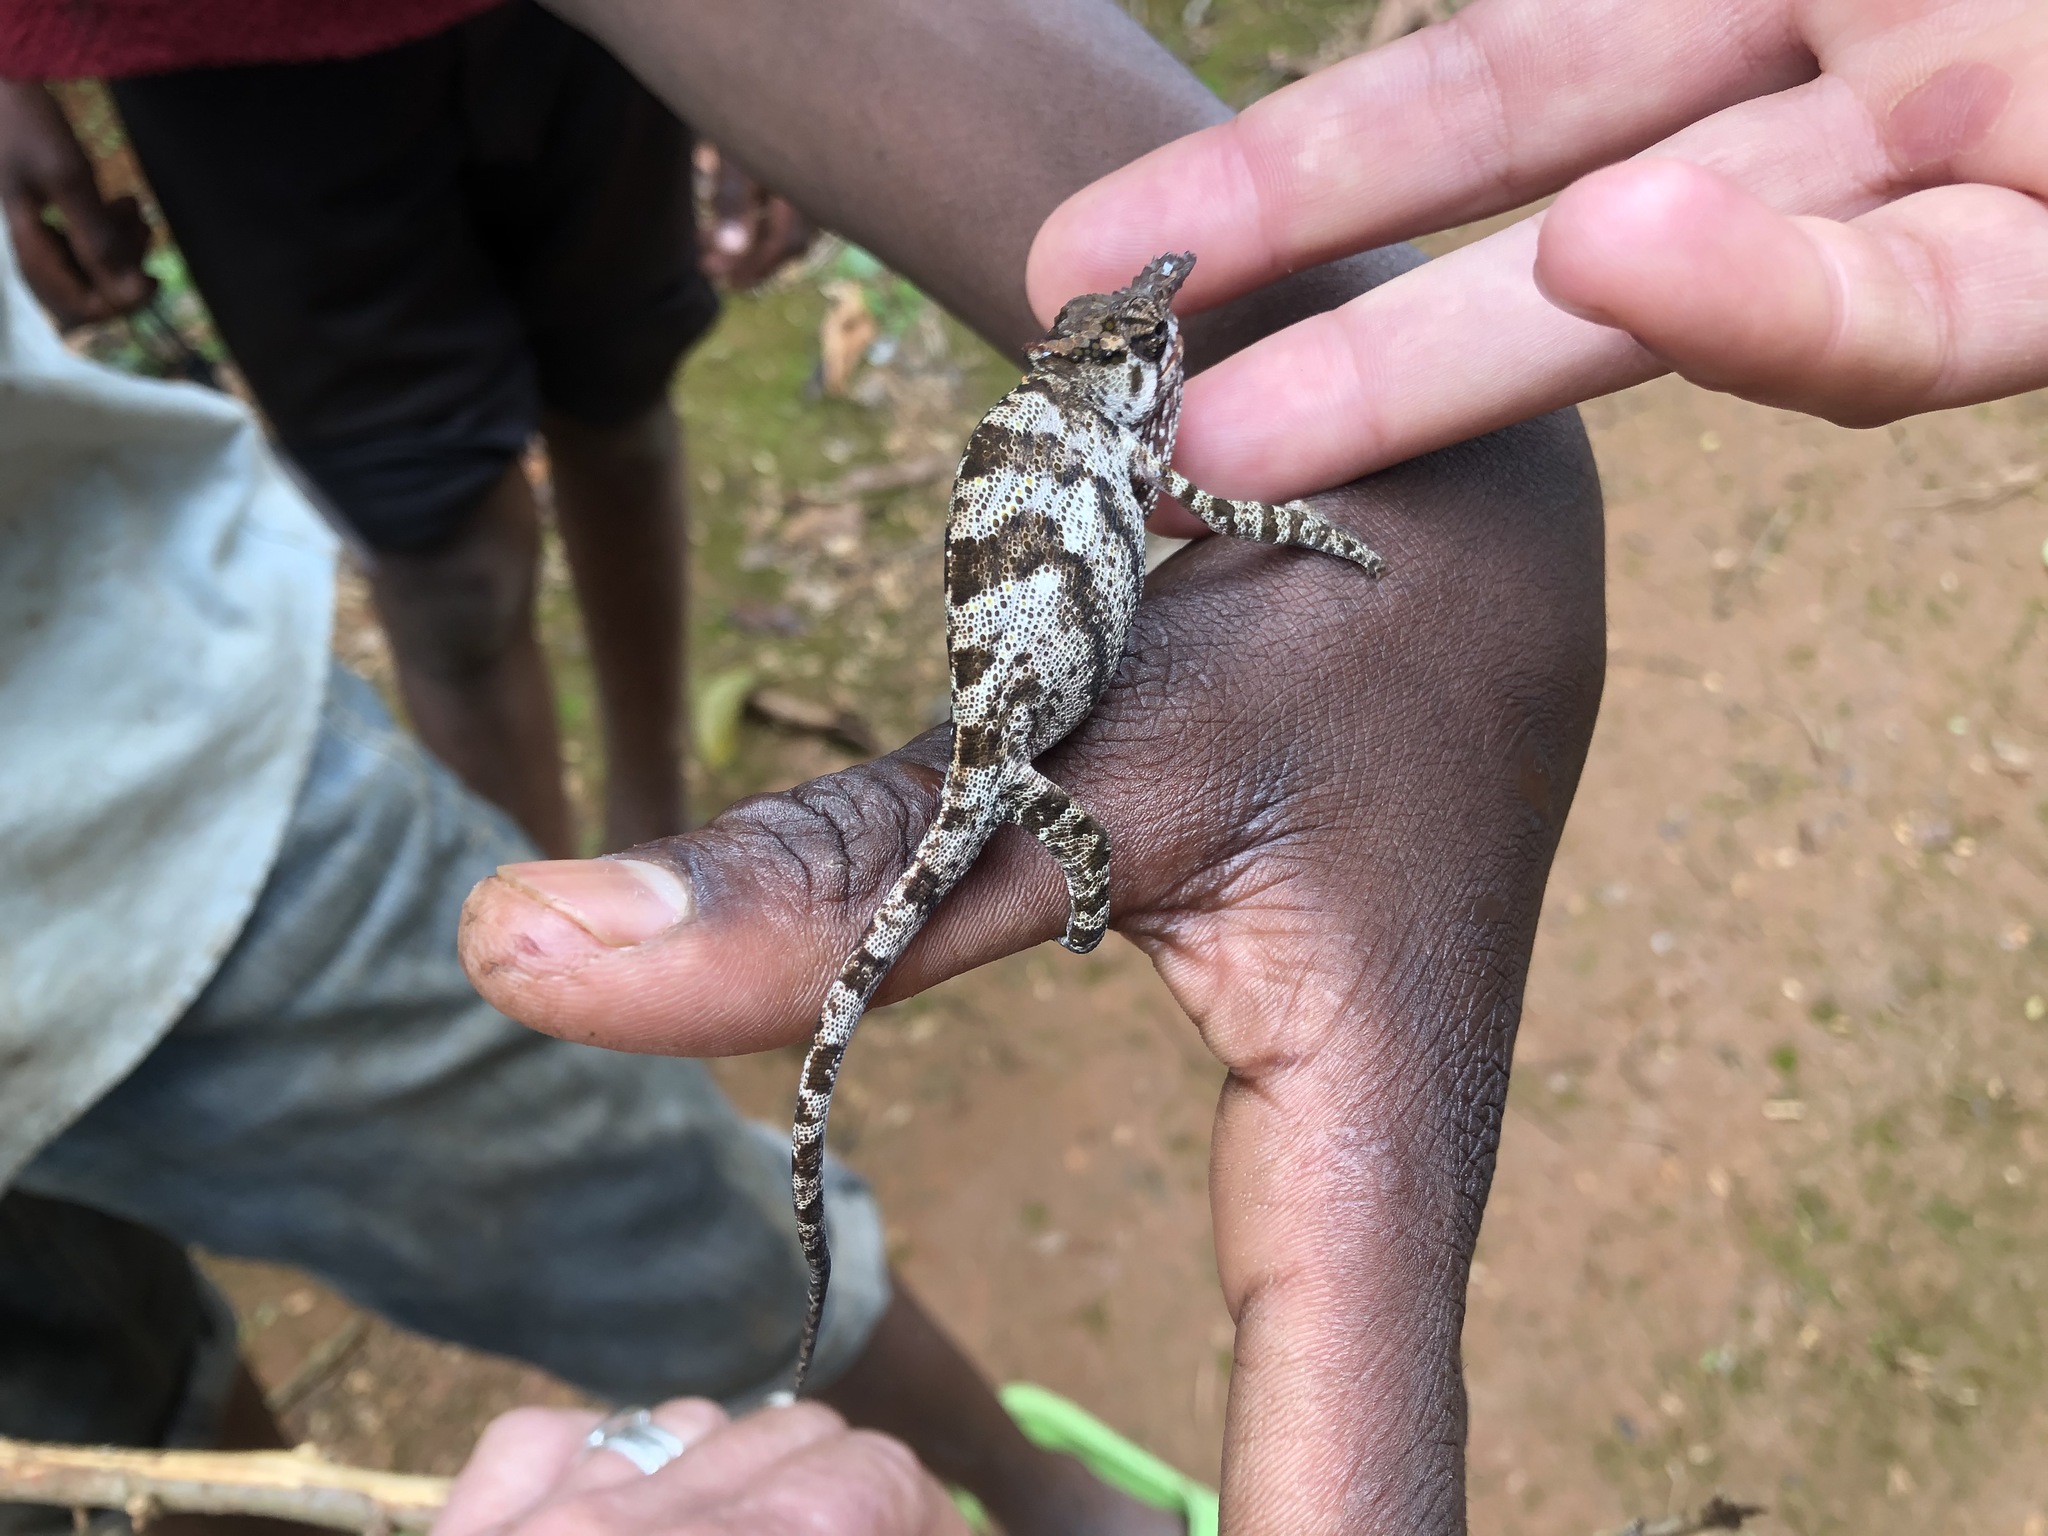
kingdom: Animalia
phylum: Chordata
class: Squamata
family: Chamaeleonidae
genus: Kinyongia
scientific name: Kinyongia tavetana
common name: Kilimanjaro blade-horned chameleon
